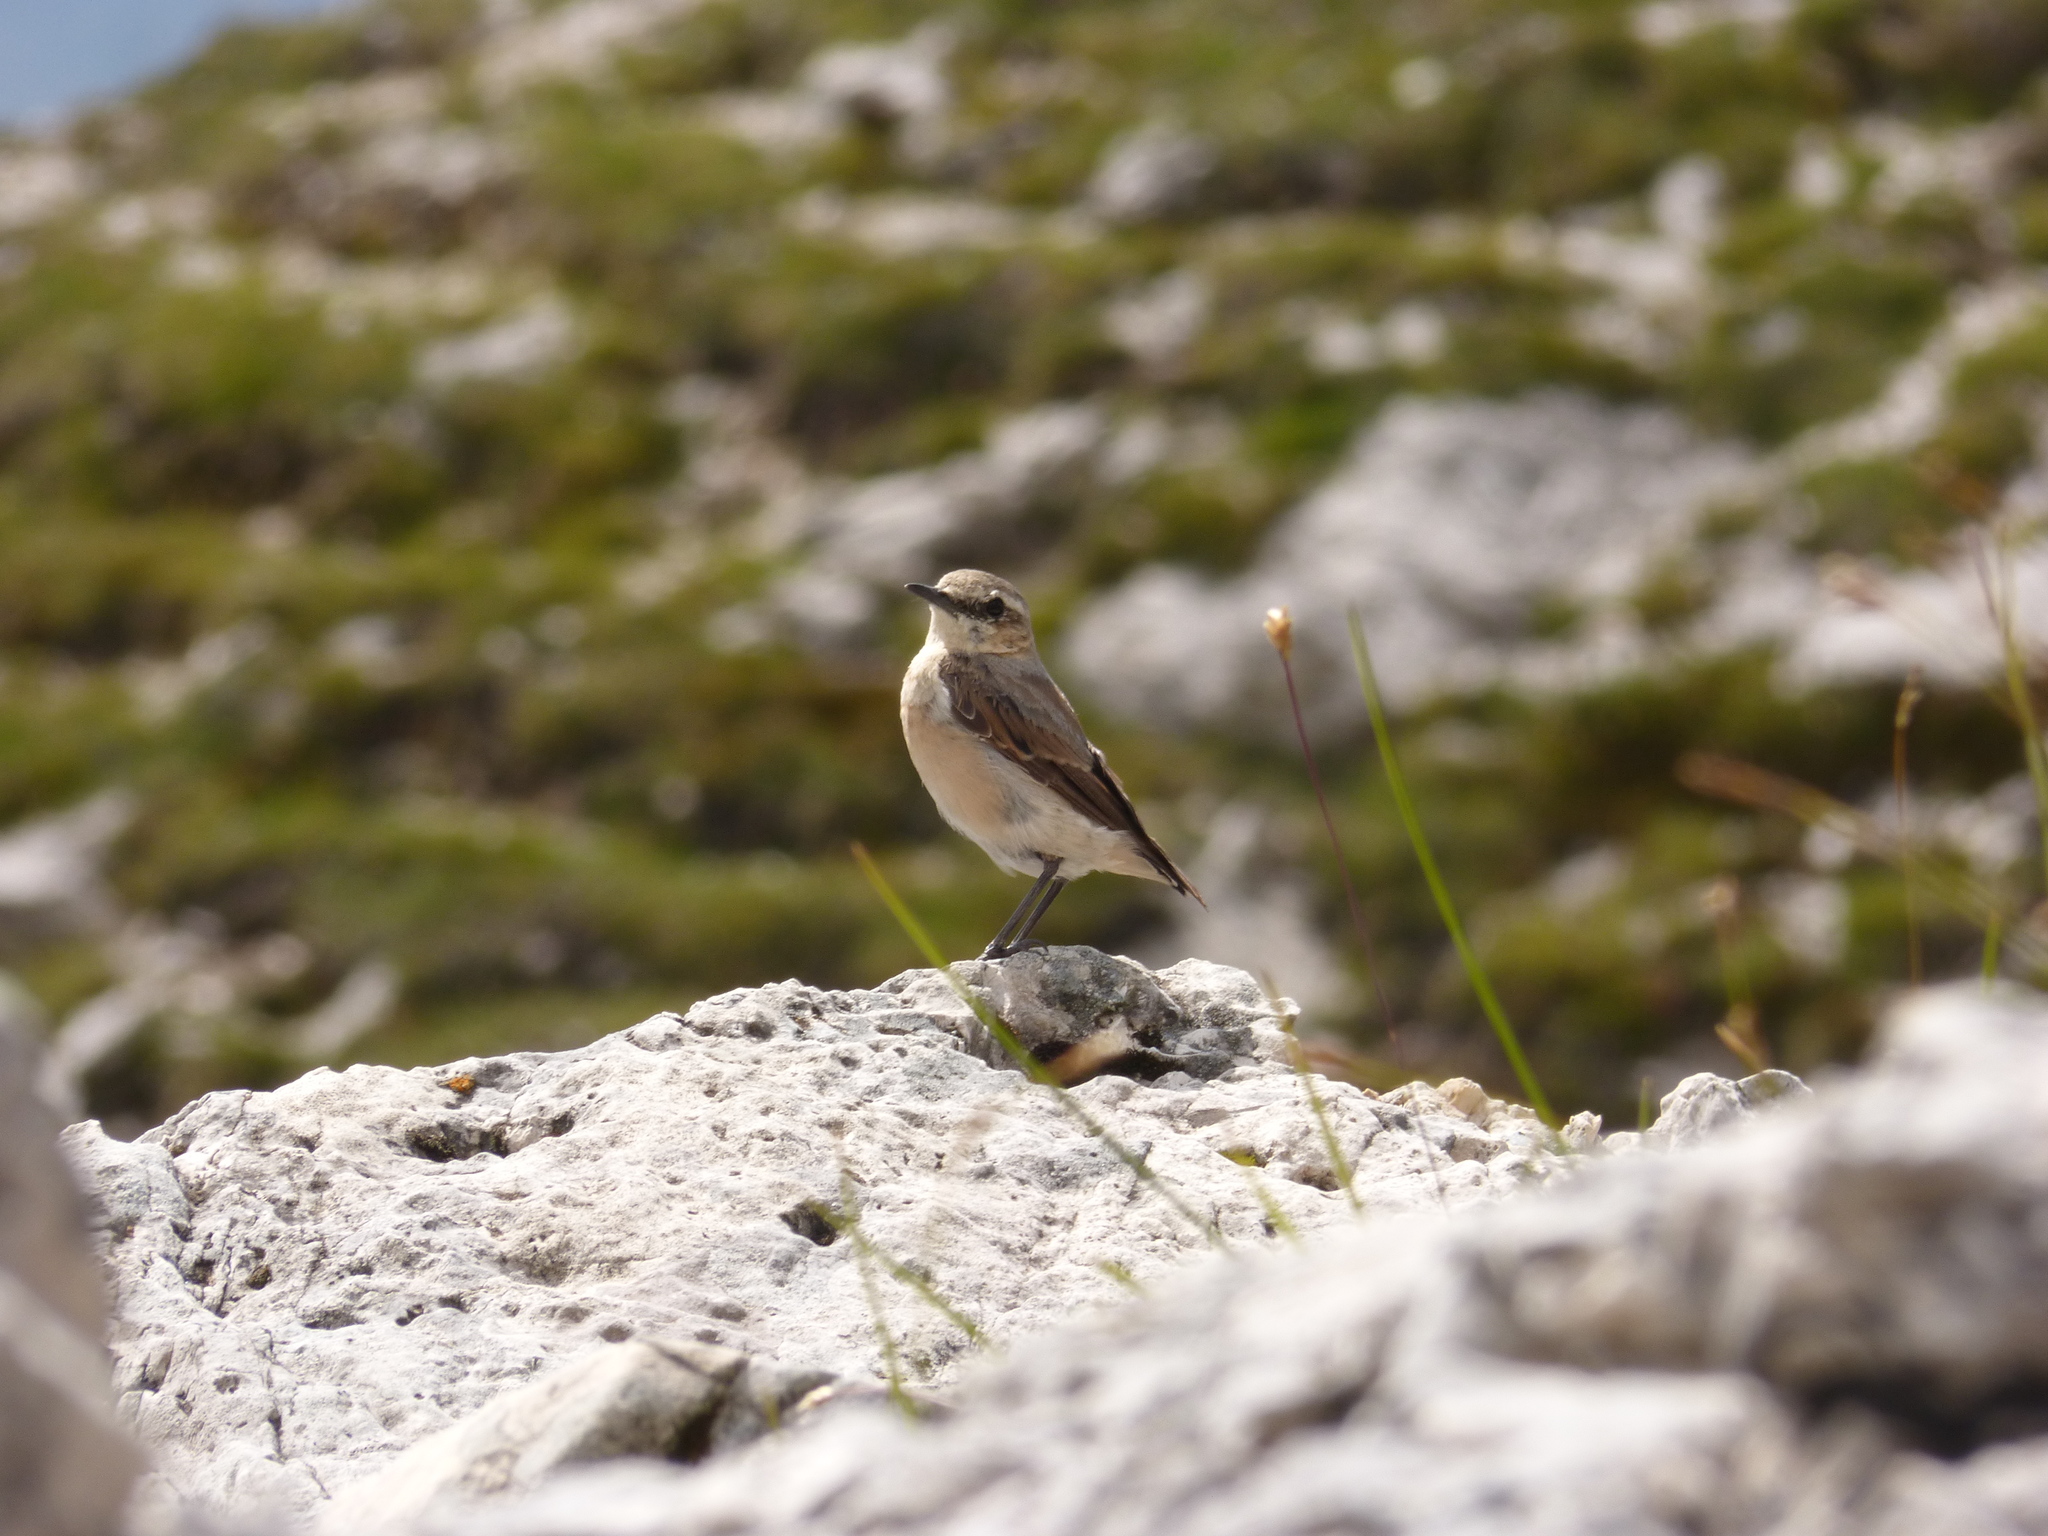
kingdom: Animalia
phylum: Chordata
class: Aves
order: Passeriformes
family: Muscicapidae
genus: Oenanthe
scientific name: Oenanthe oenanthe
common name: Northern wheatear
